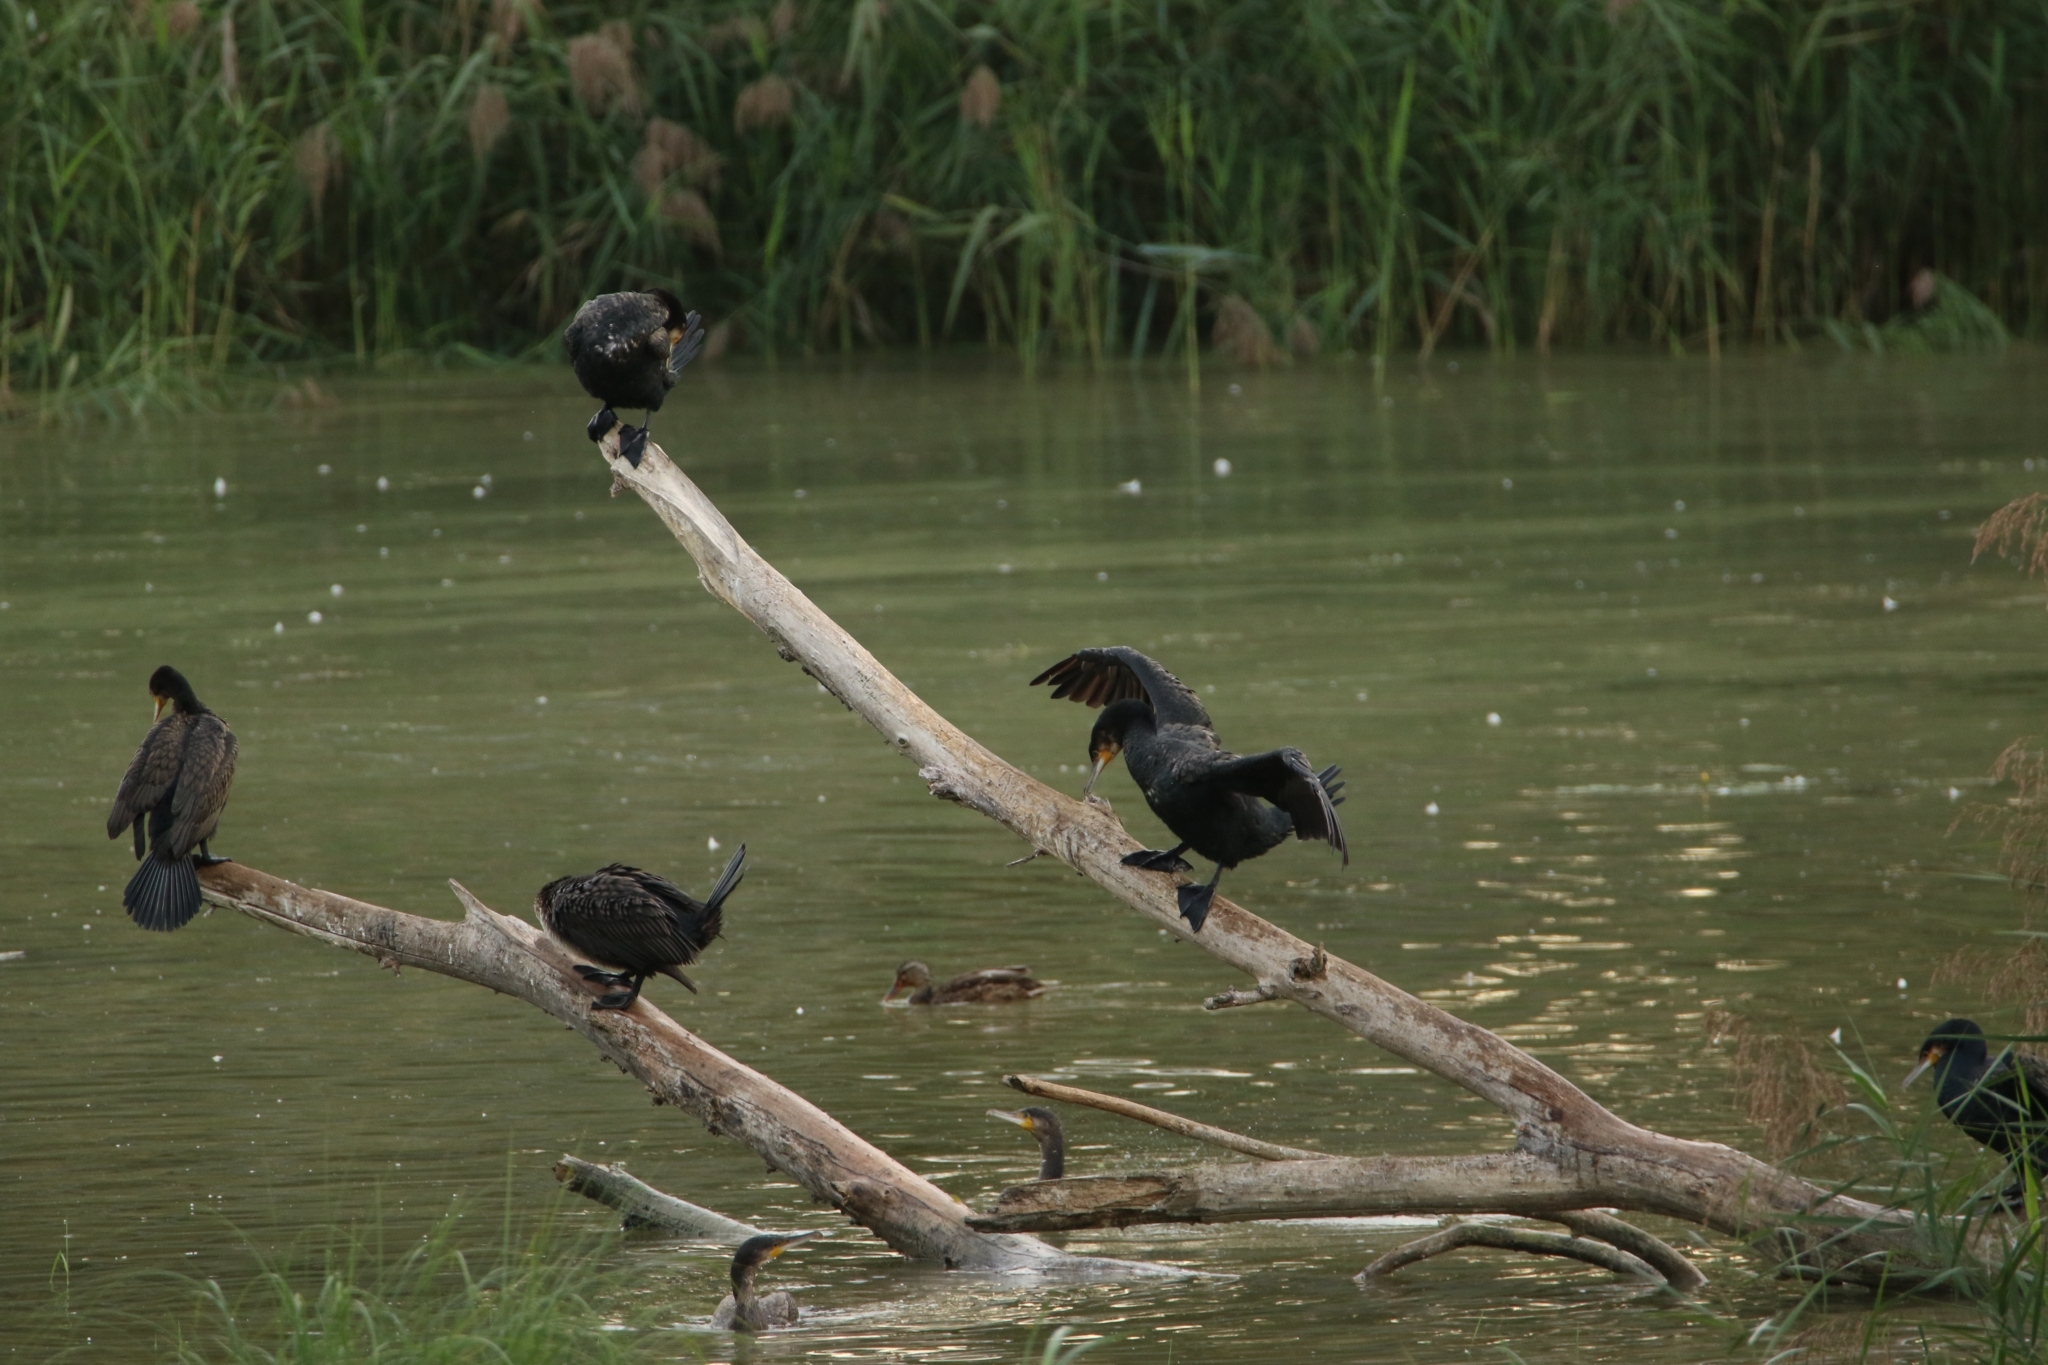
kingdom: Animalia
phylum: Chordata
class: Aves
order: Suliformes
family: Phalacrocoracidae
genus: Phalacrocorax
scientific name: Phalacrocorax carbo
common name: Great cormorant
